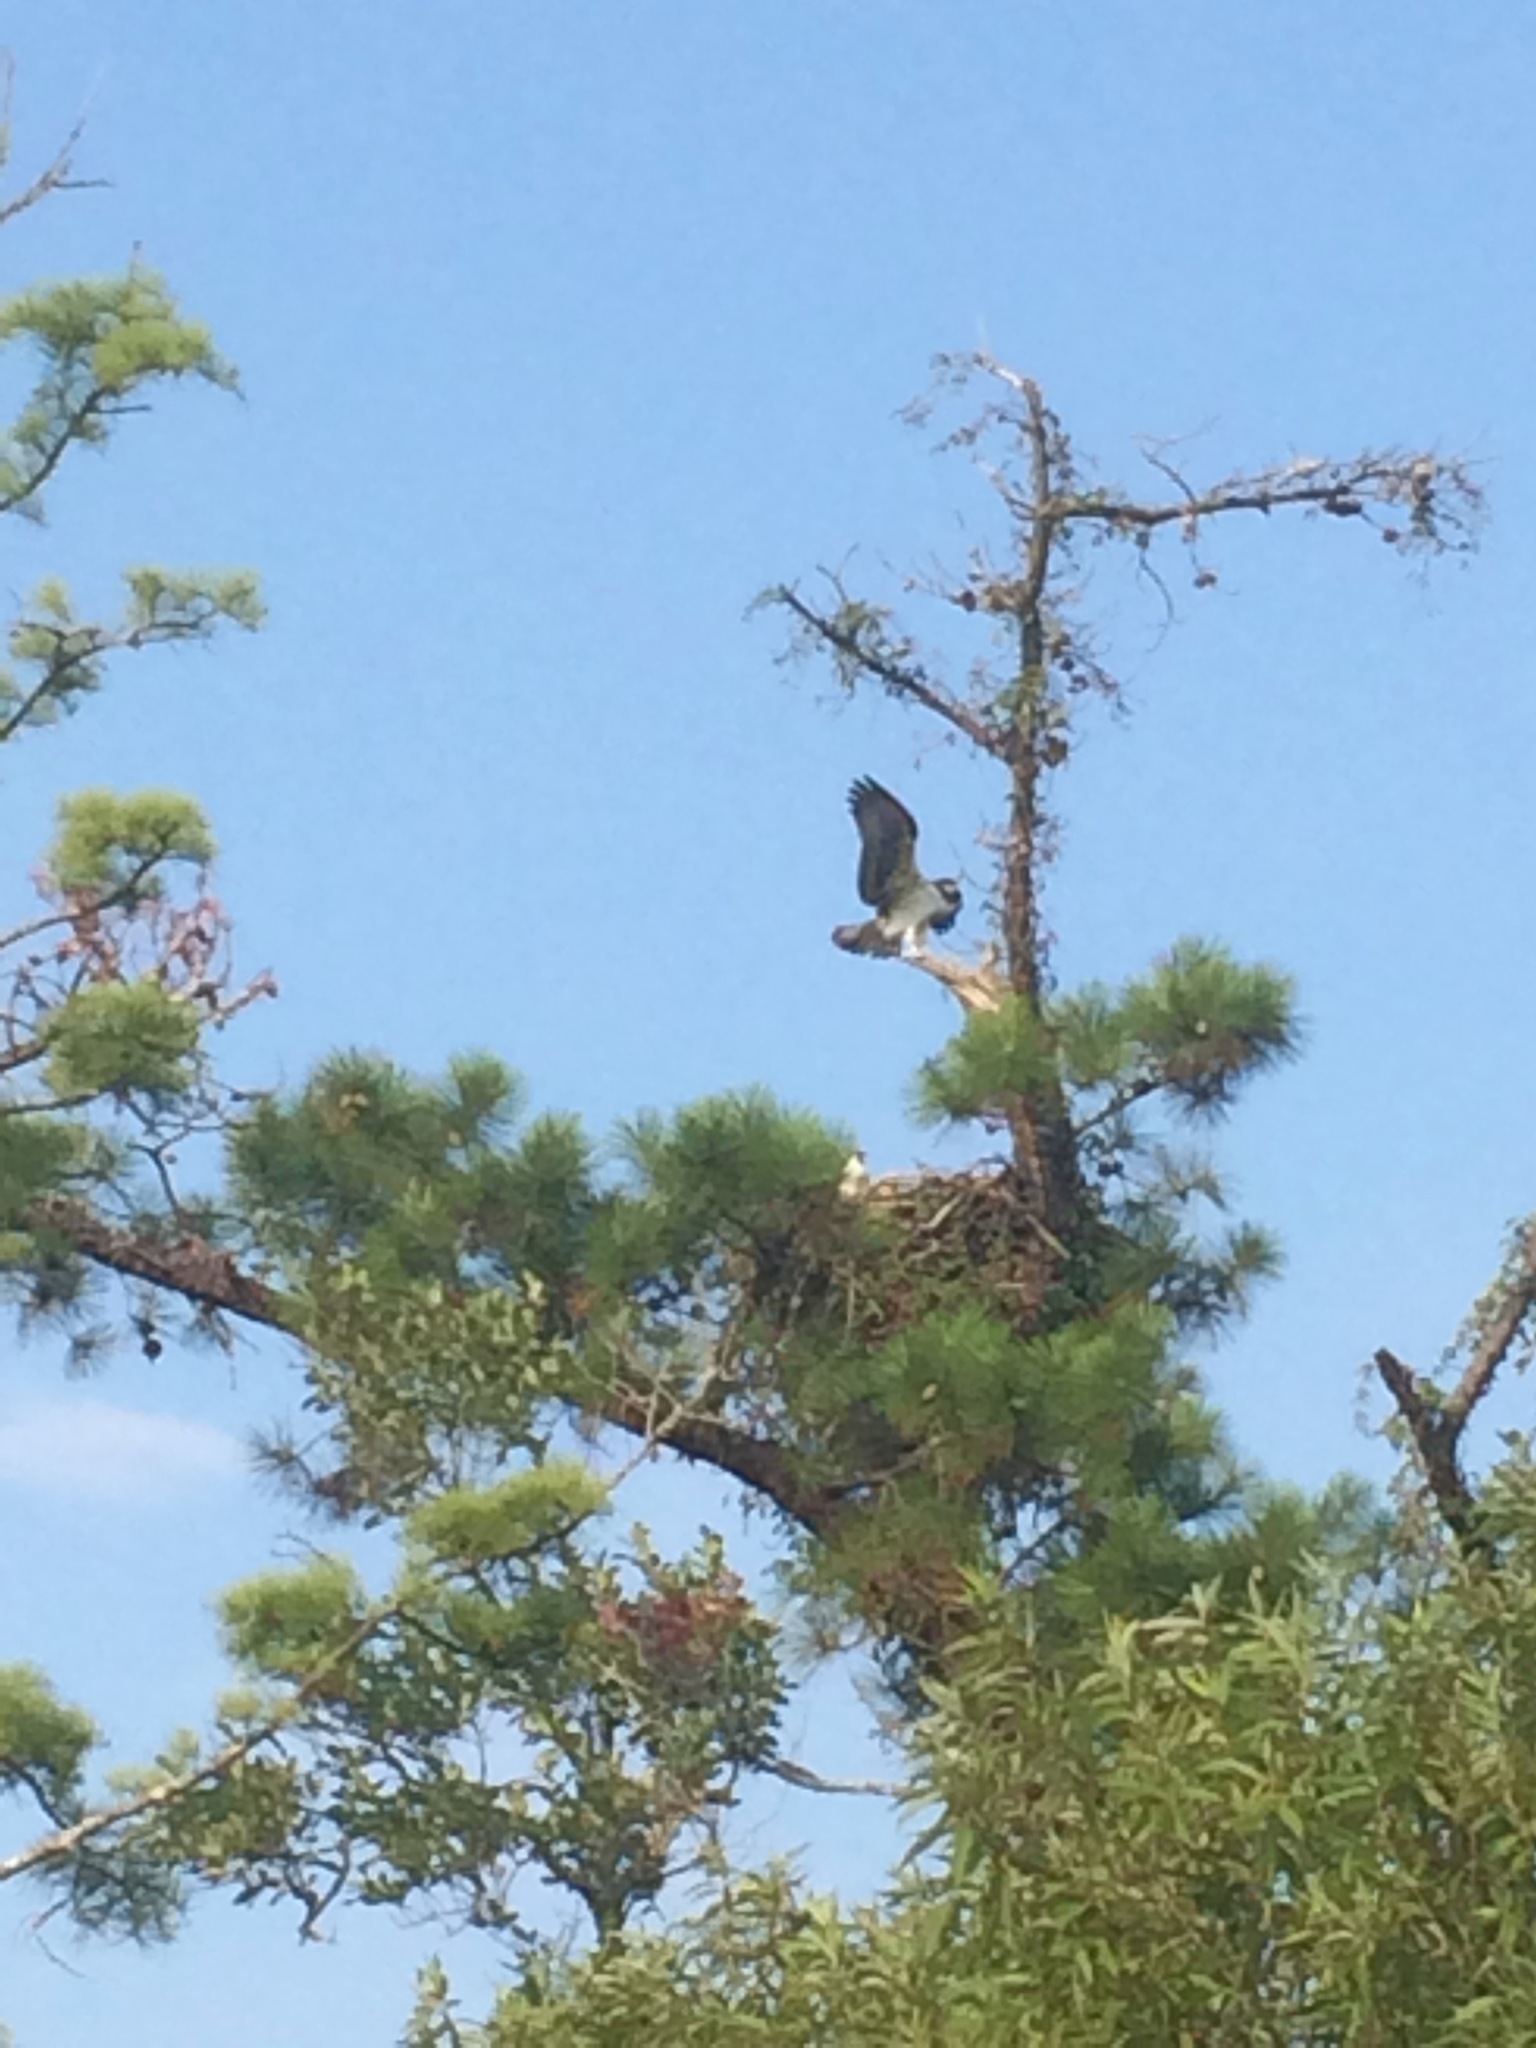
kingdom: Animalia
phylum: Chordata
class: Aves
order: Accipitriformes
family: Pandionidae
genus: Pandion
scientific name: Pandion haliaetus
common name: Osprey
